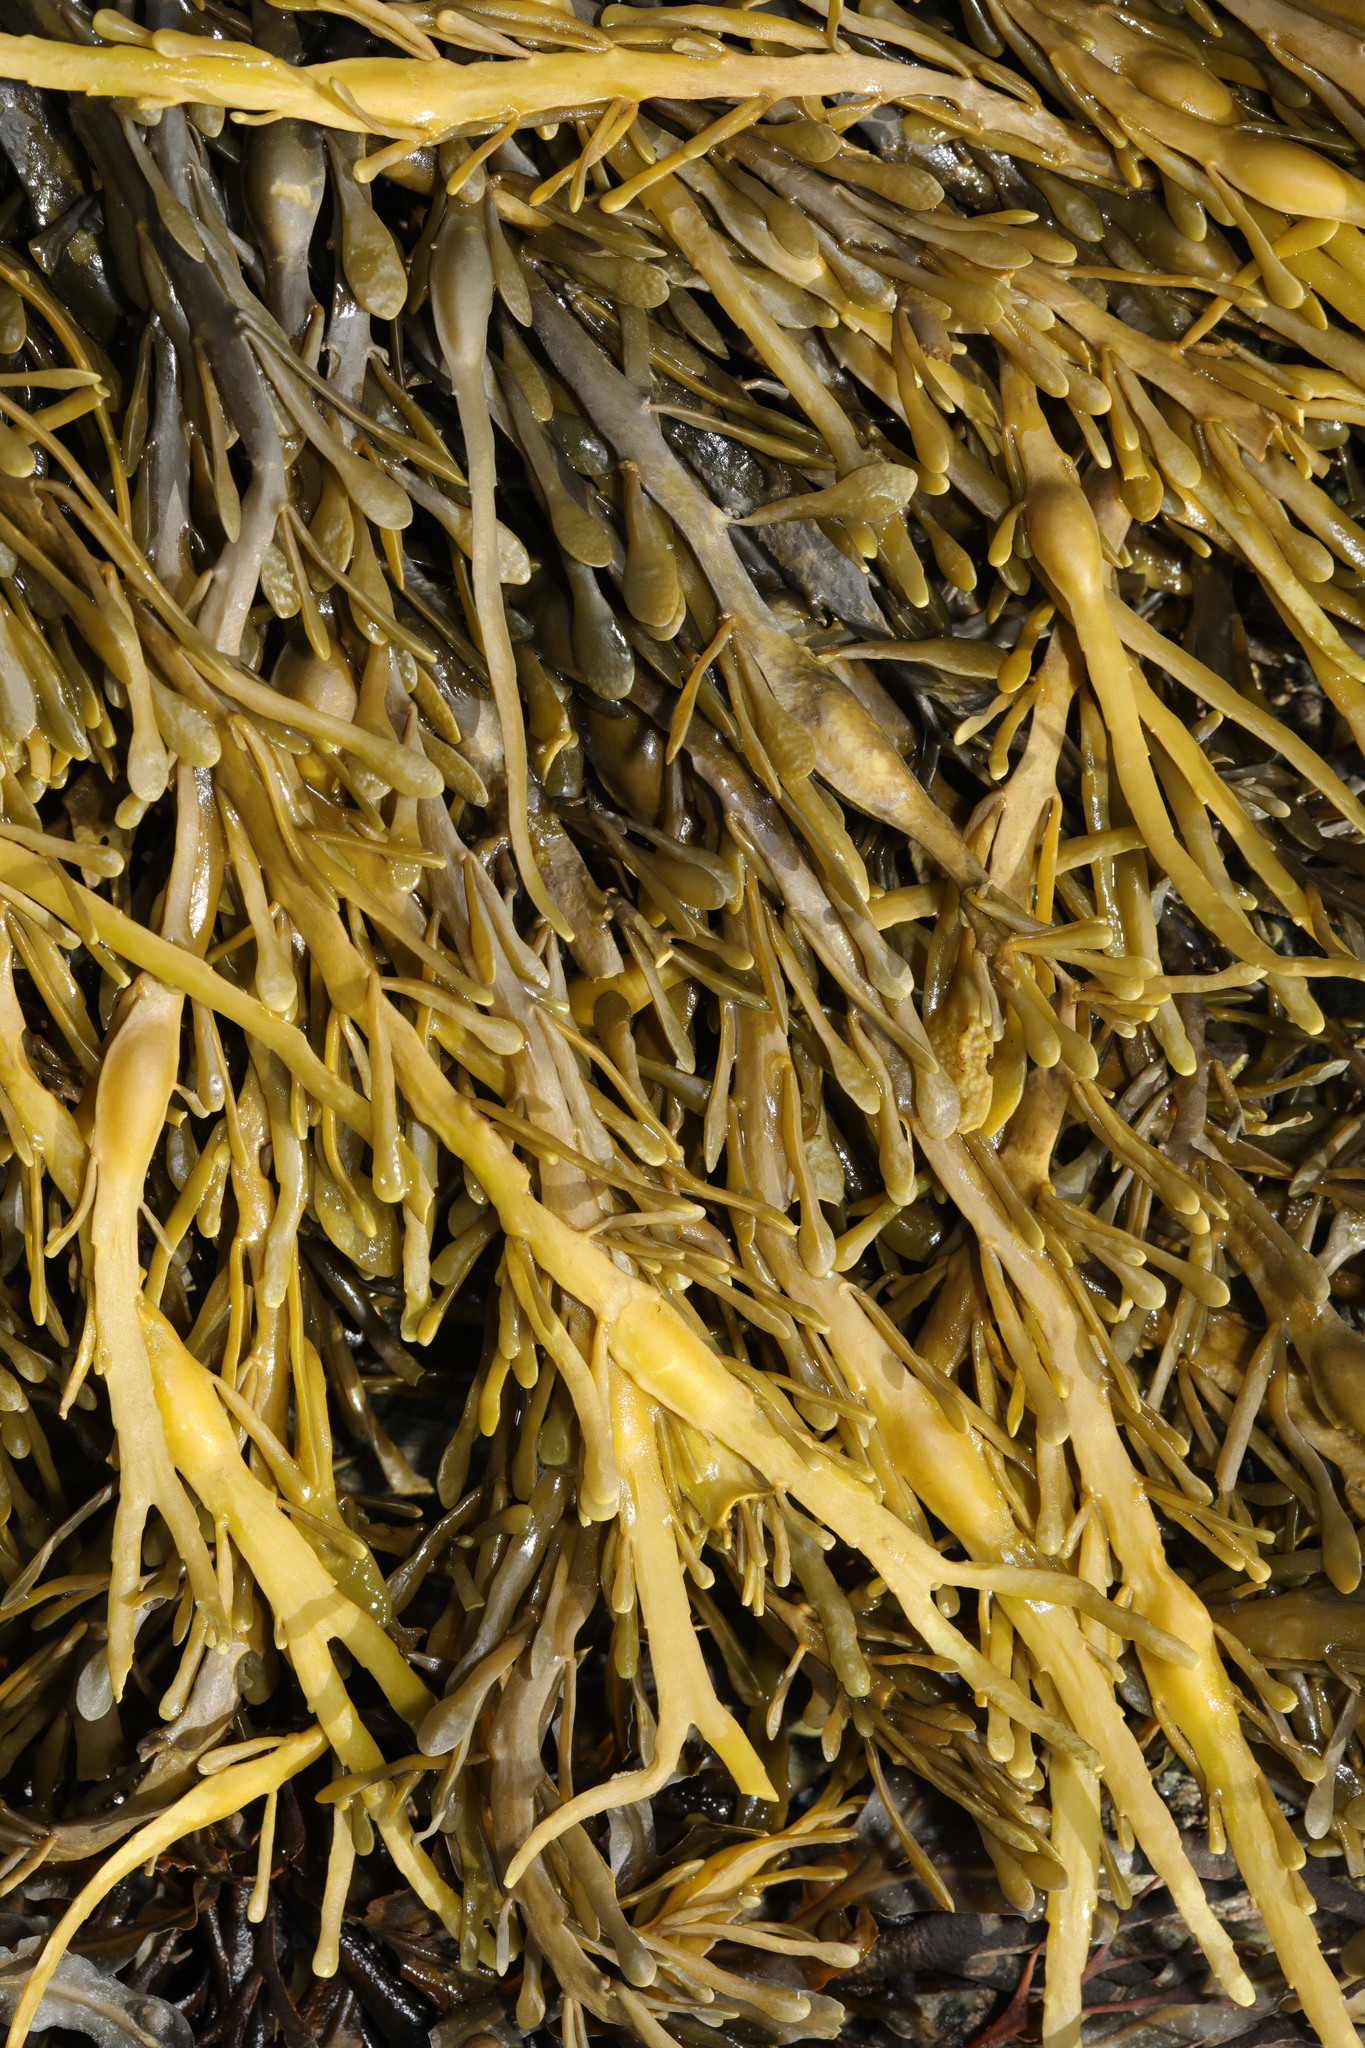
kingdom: Chromista
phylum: Ochrophyta
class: Phaeophyceae
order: Fucales
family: Fucaceae
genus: Ascophyllum
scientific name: Ascophyllum nodosum
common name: Knotted wrack
